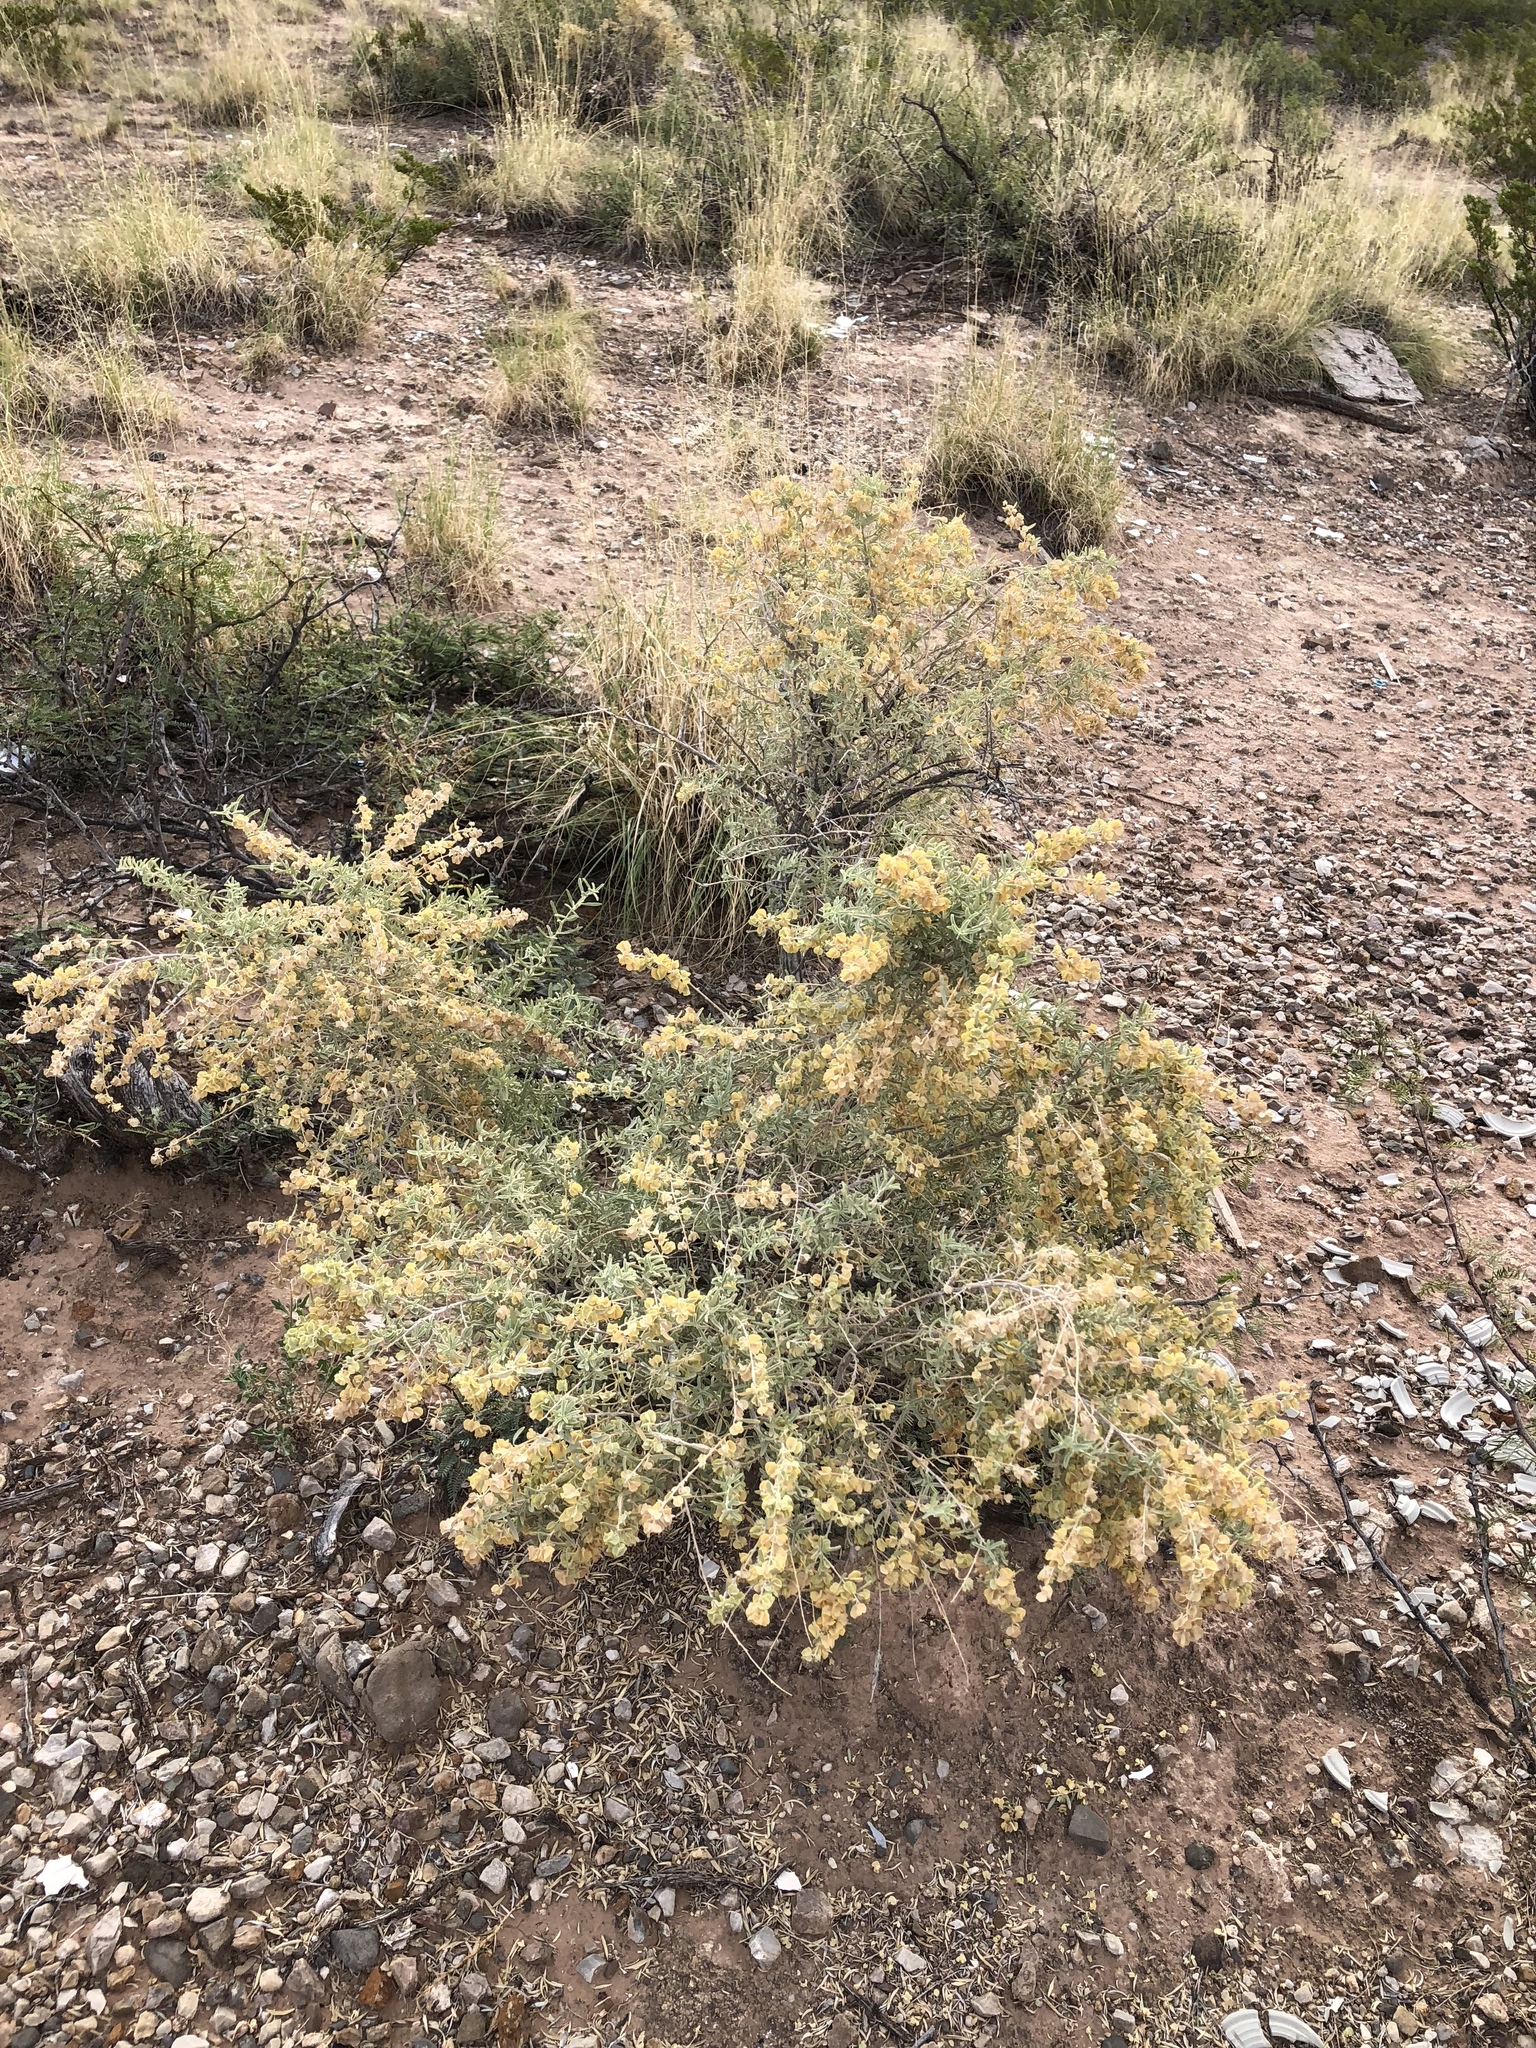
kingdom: Plantae
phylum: Tracheophyta
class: Magnoliopsida
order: Caryophyllales
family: Amaranthaceae
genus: Atriplex
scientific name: Atriplex canescens
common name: Four-wing saltbush
